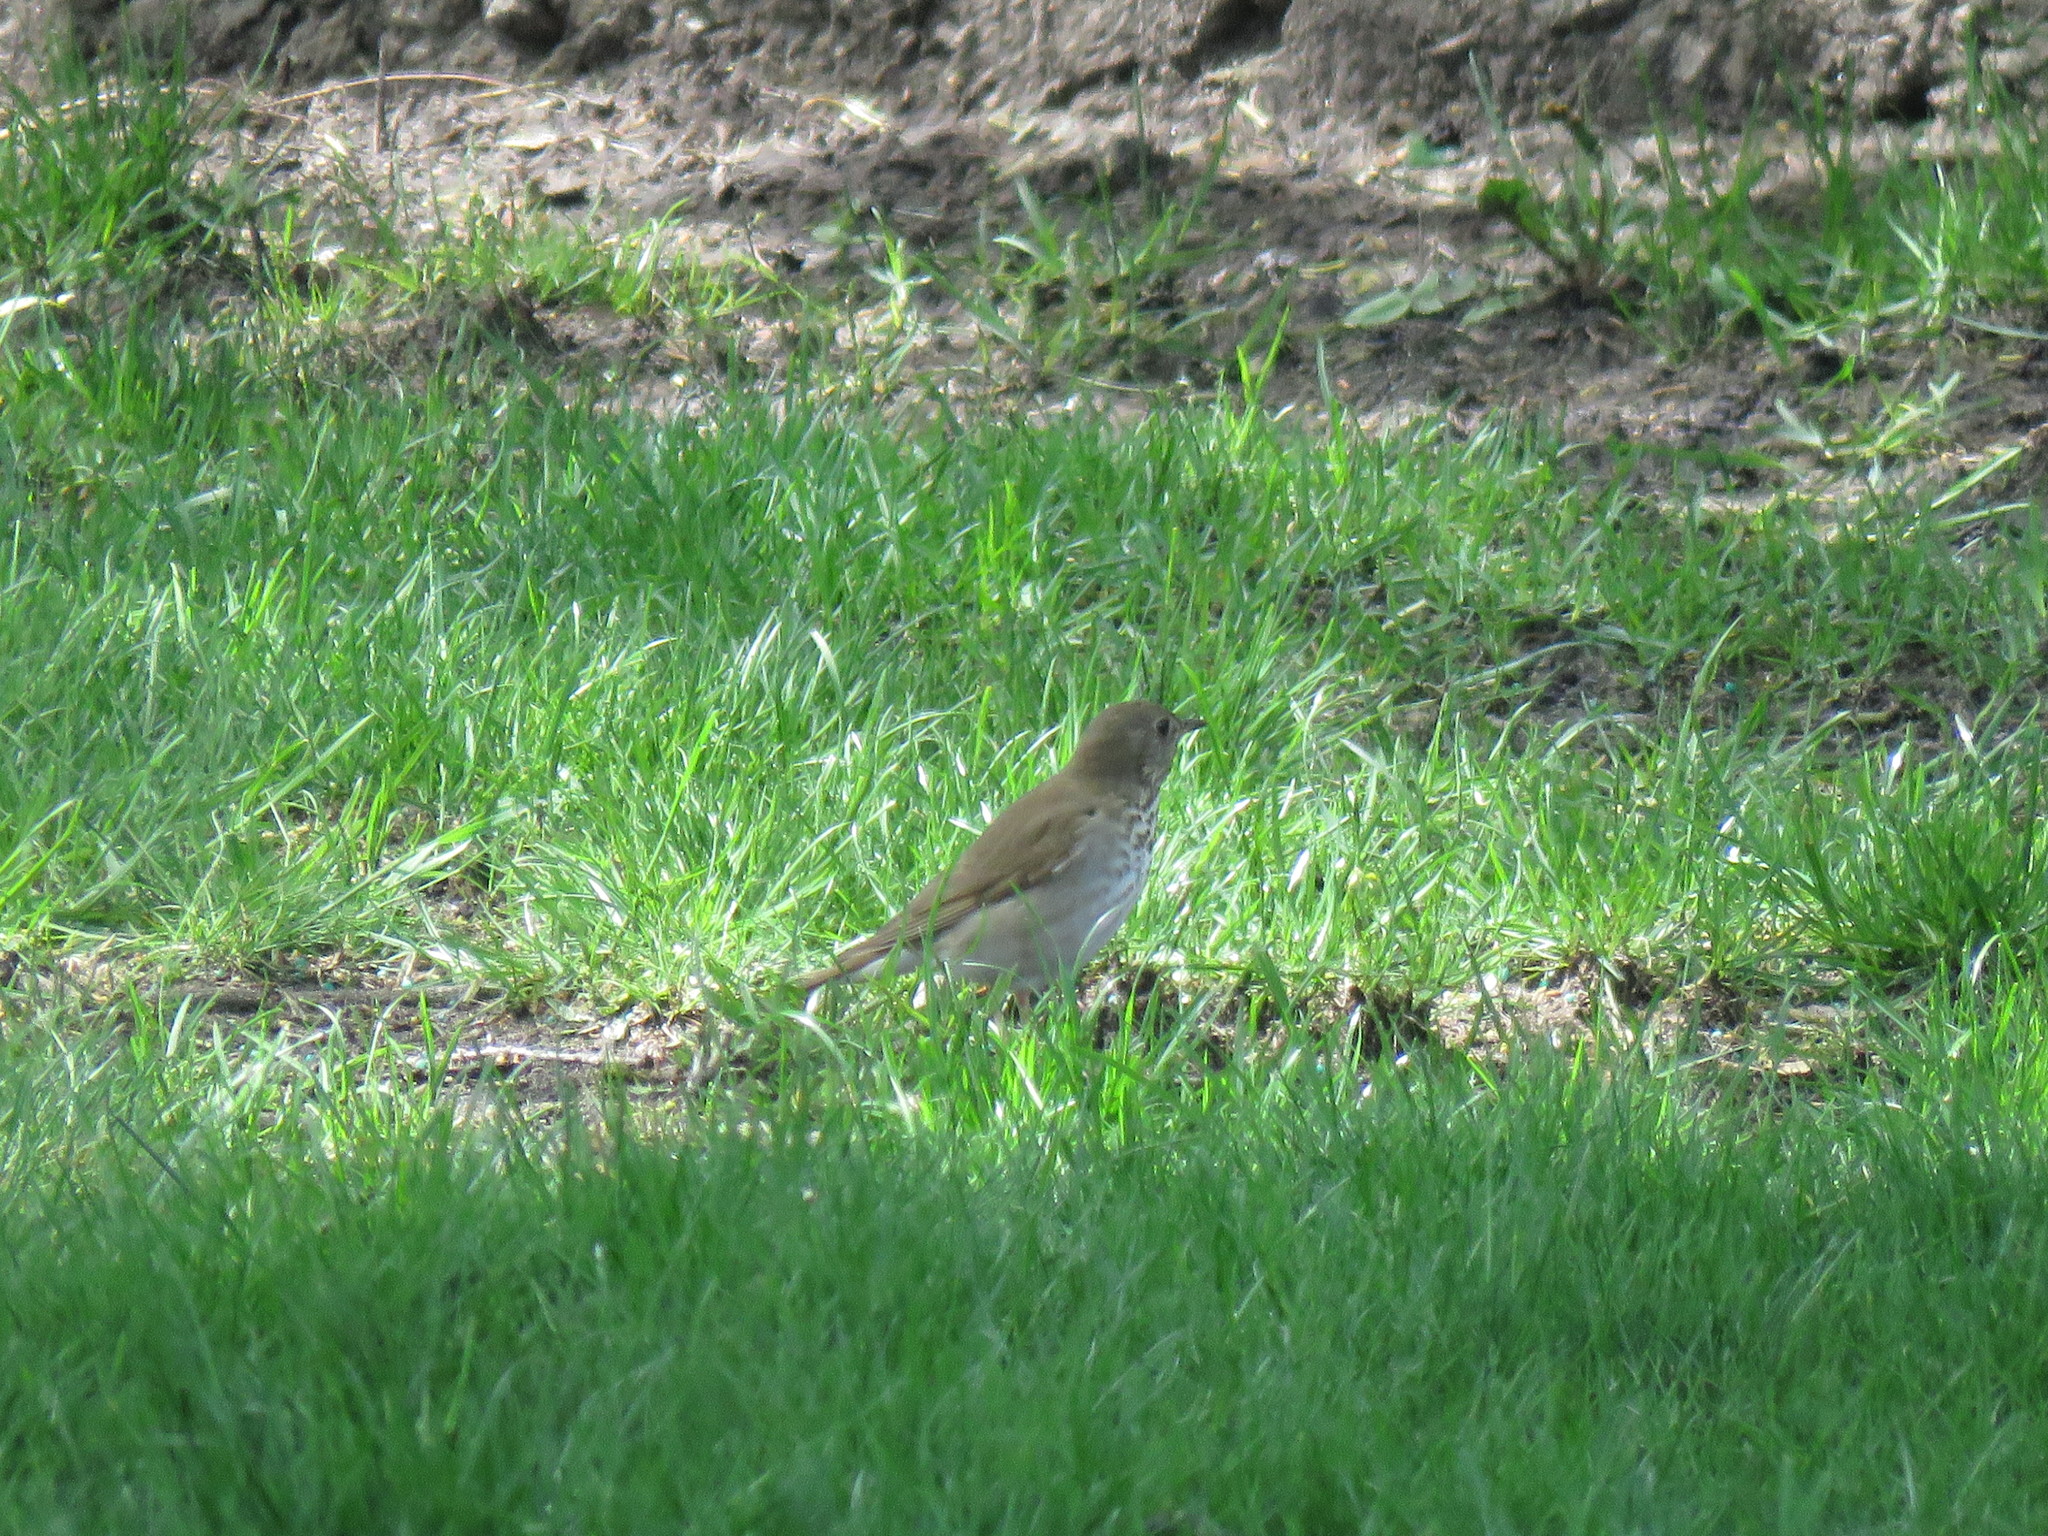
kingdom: Animalia
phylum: Chordata
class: Aves
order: Passeriformes
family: Turdidae
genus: Catharus
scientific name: Catharus minimus
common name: Grey-cheeked thrush
